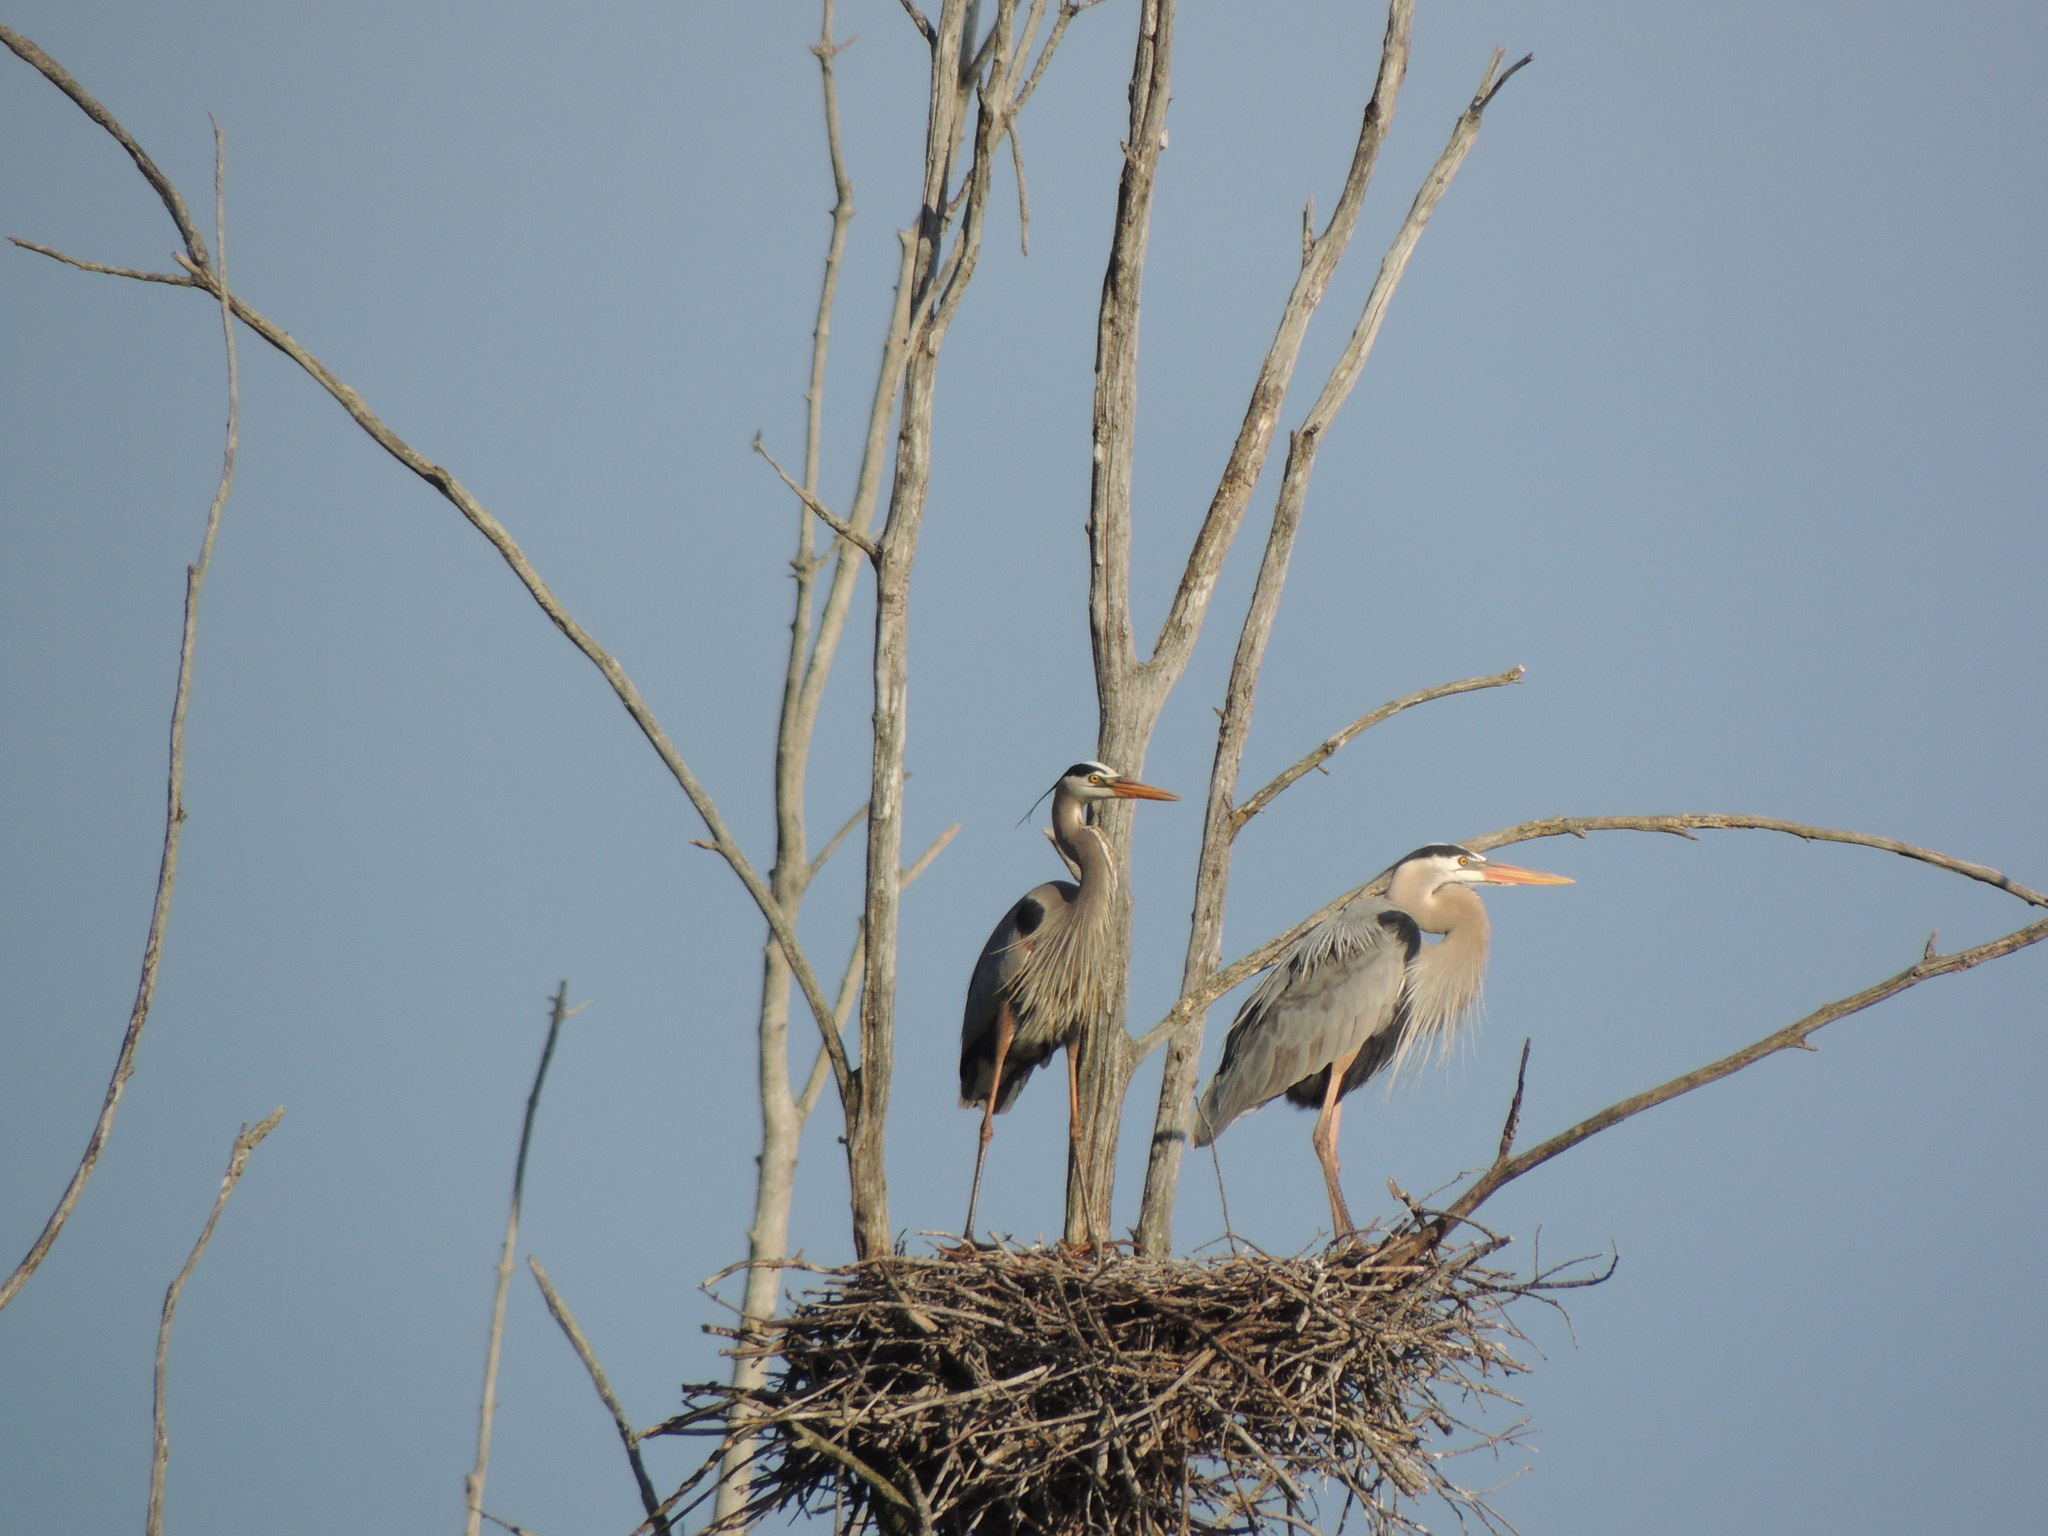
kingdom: Animalia
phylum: Chordata
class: Aves
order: Pelecaniformes
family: Ardeidae
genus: Ardea
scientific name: Ardea herodias
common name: Great blue heron
